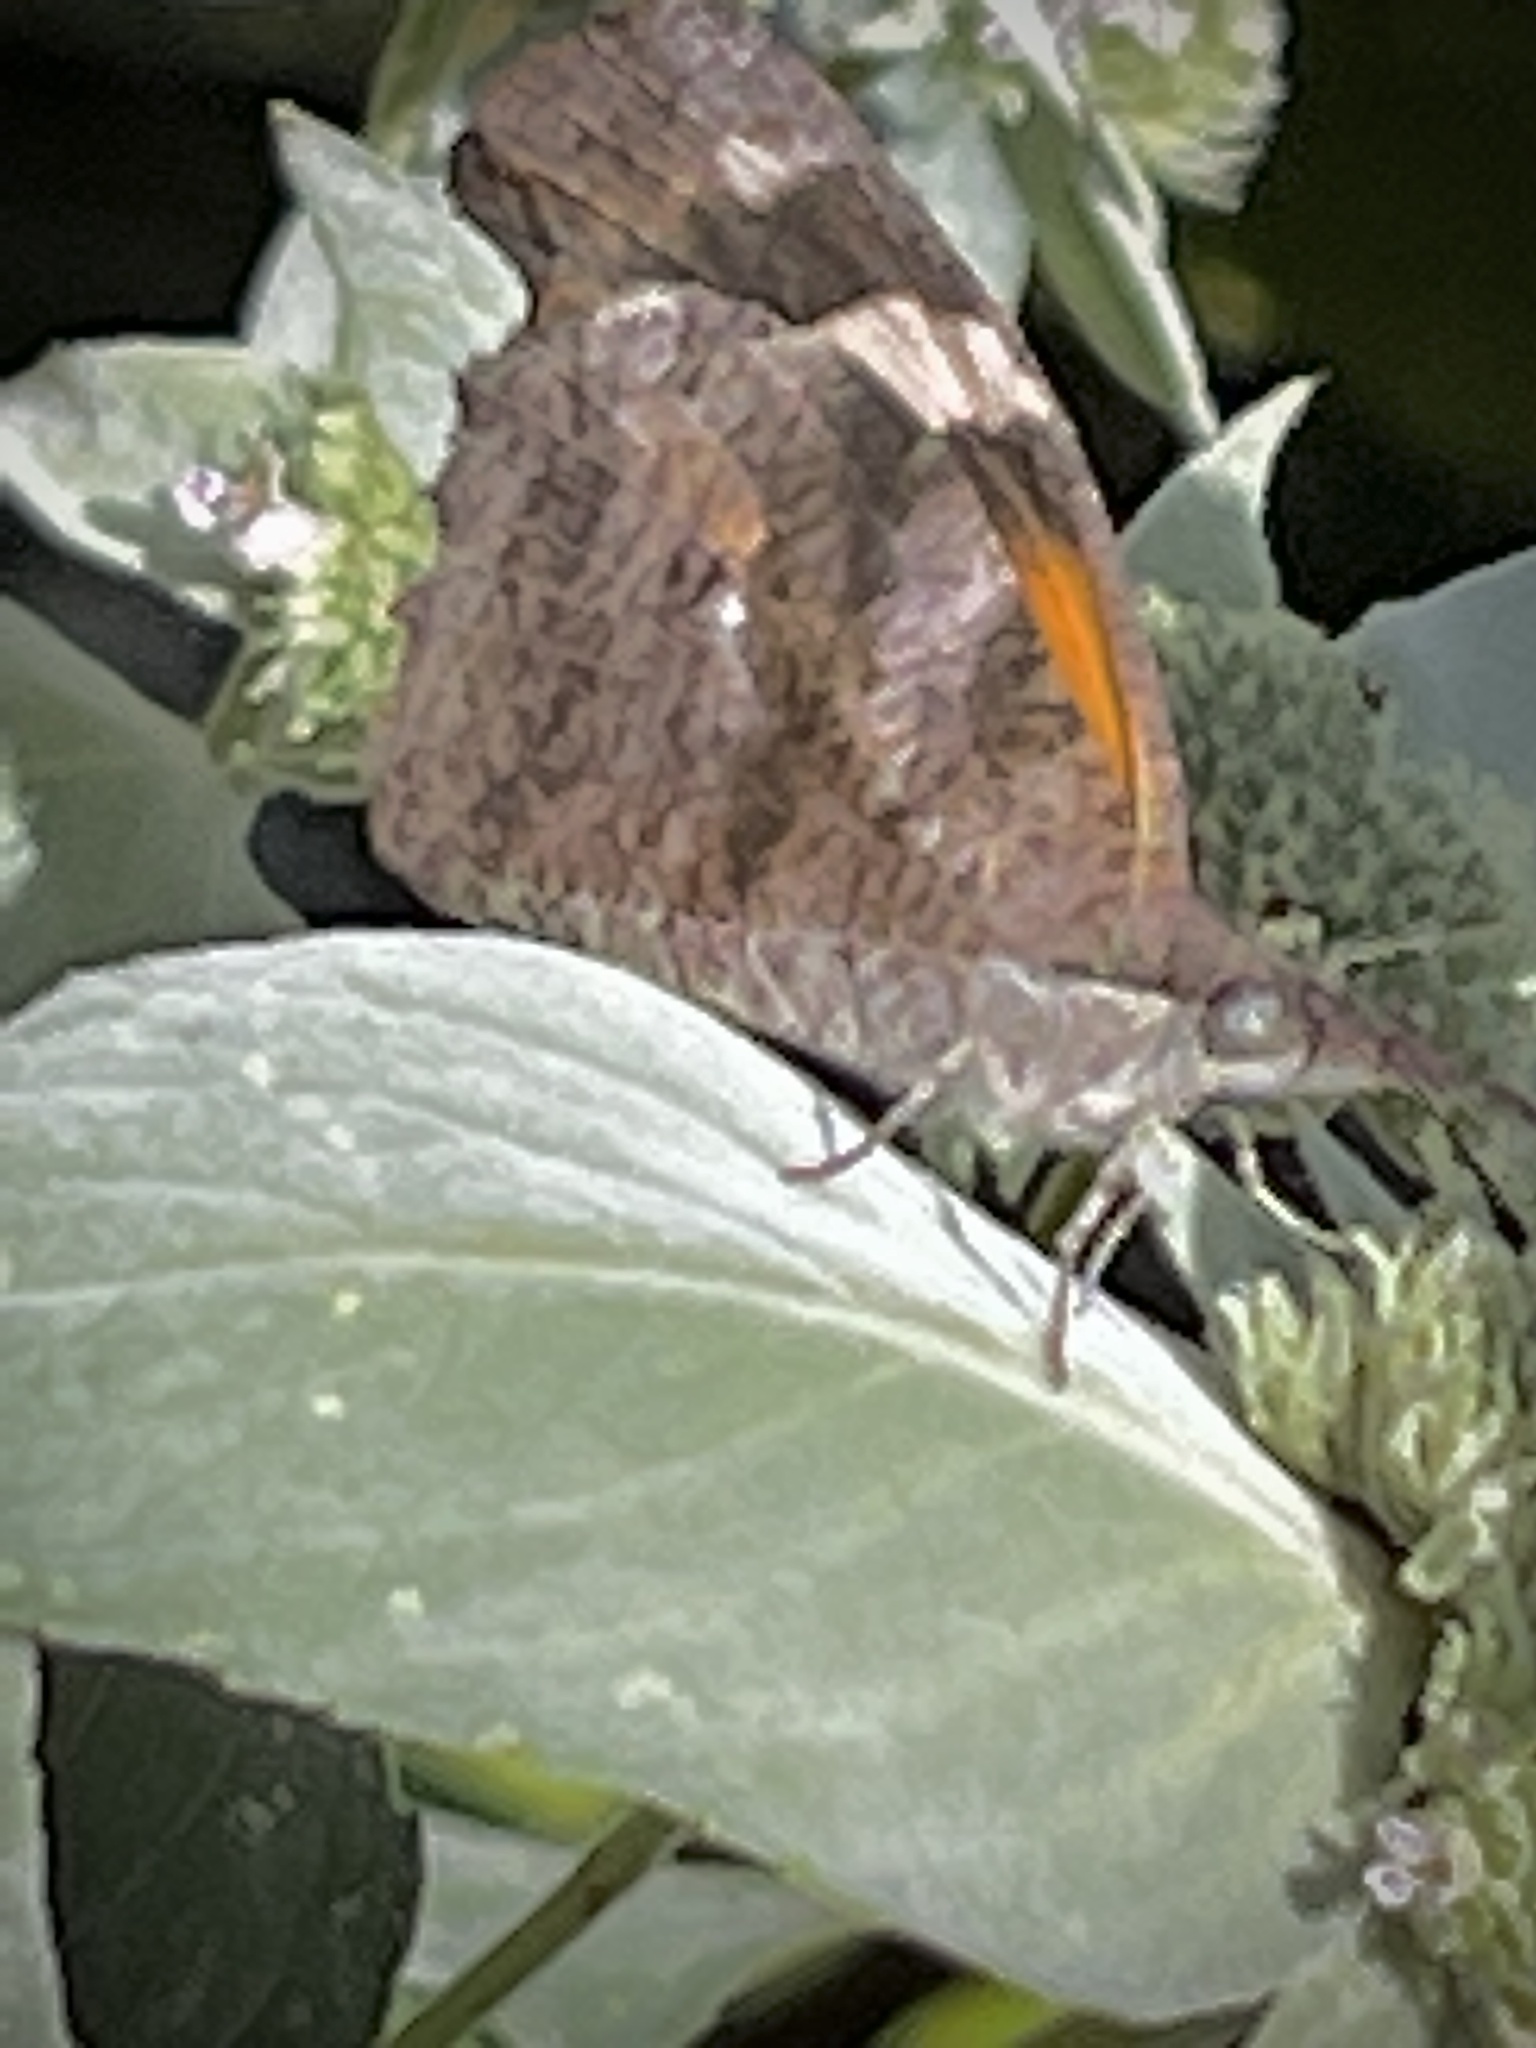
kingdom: Animalia
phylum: Arthropoda
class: Insecta
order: Lepidoptera
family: Nymphalidae
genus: Libytheana
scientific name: Libytheana carinenta
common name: American snout
